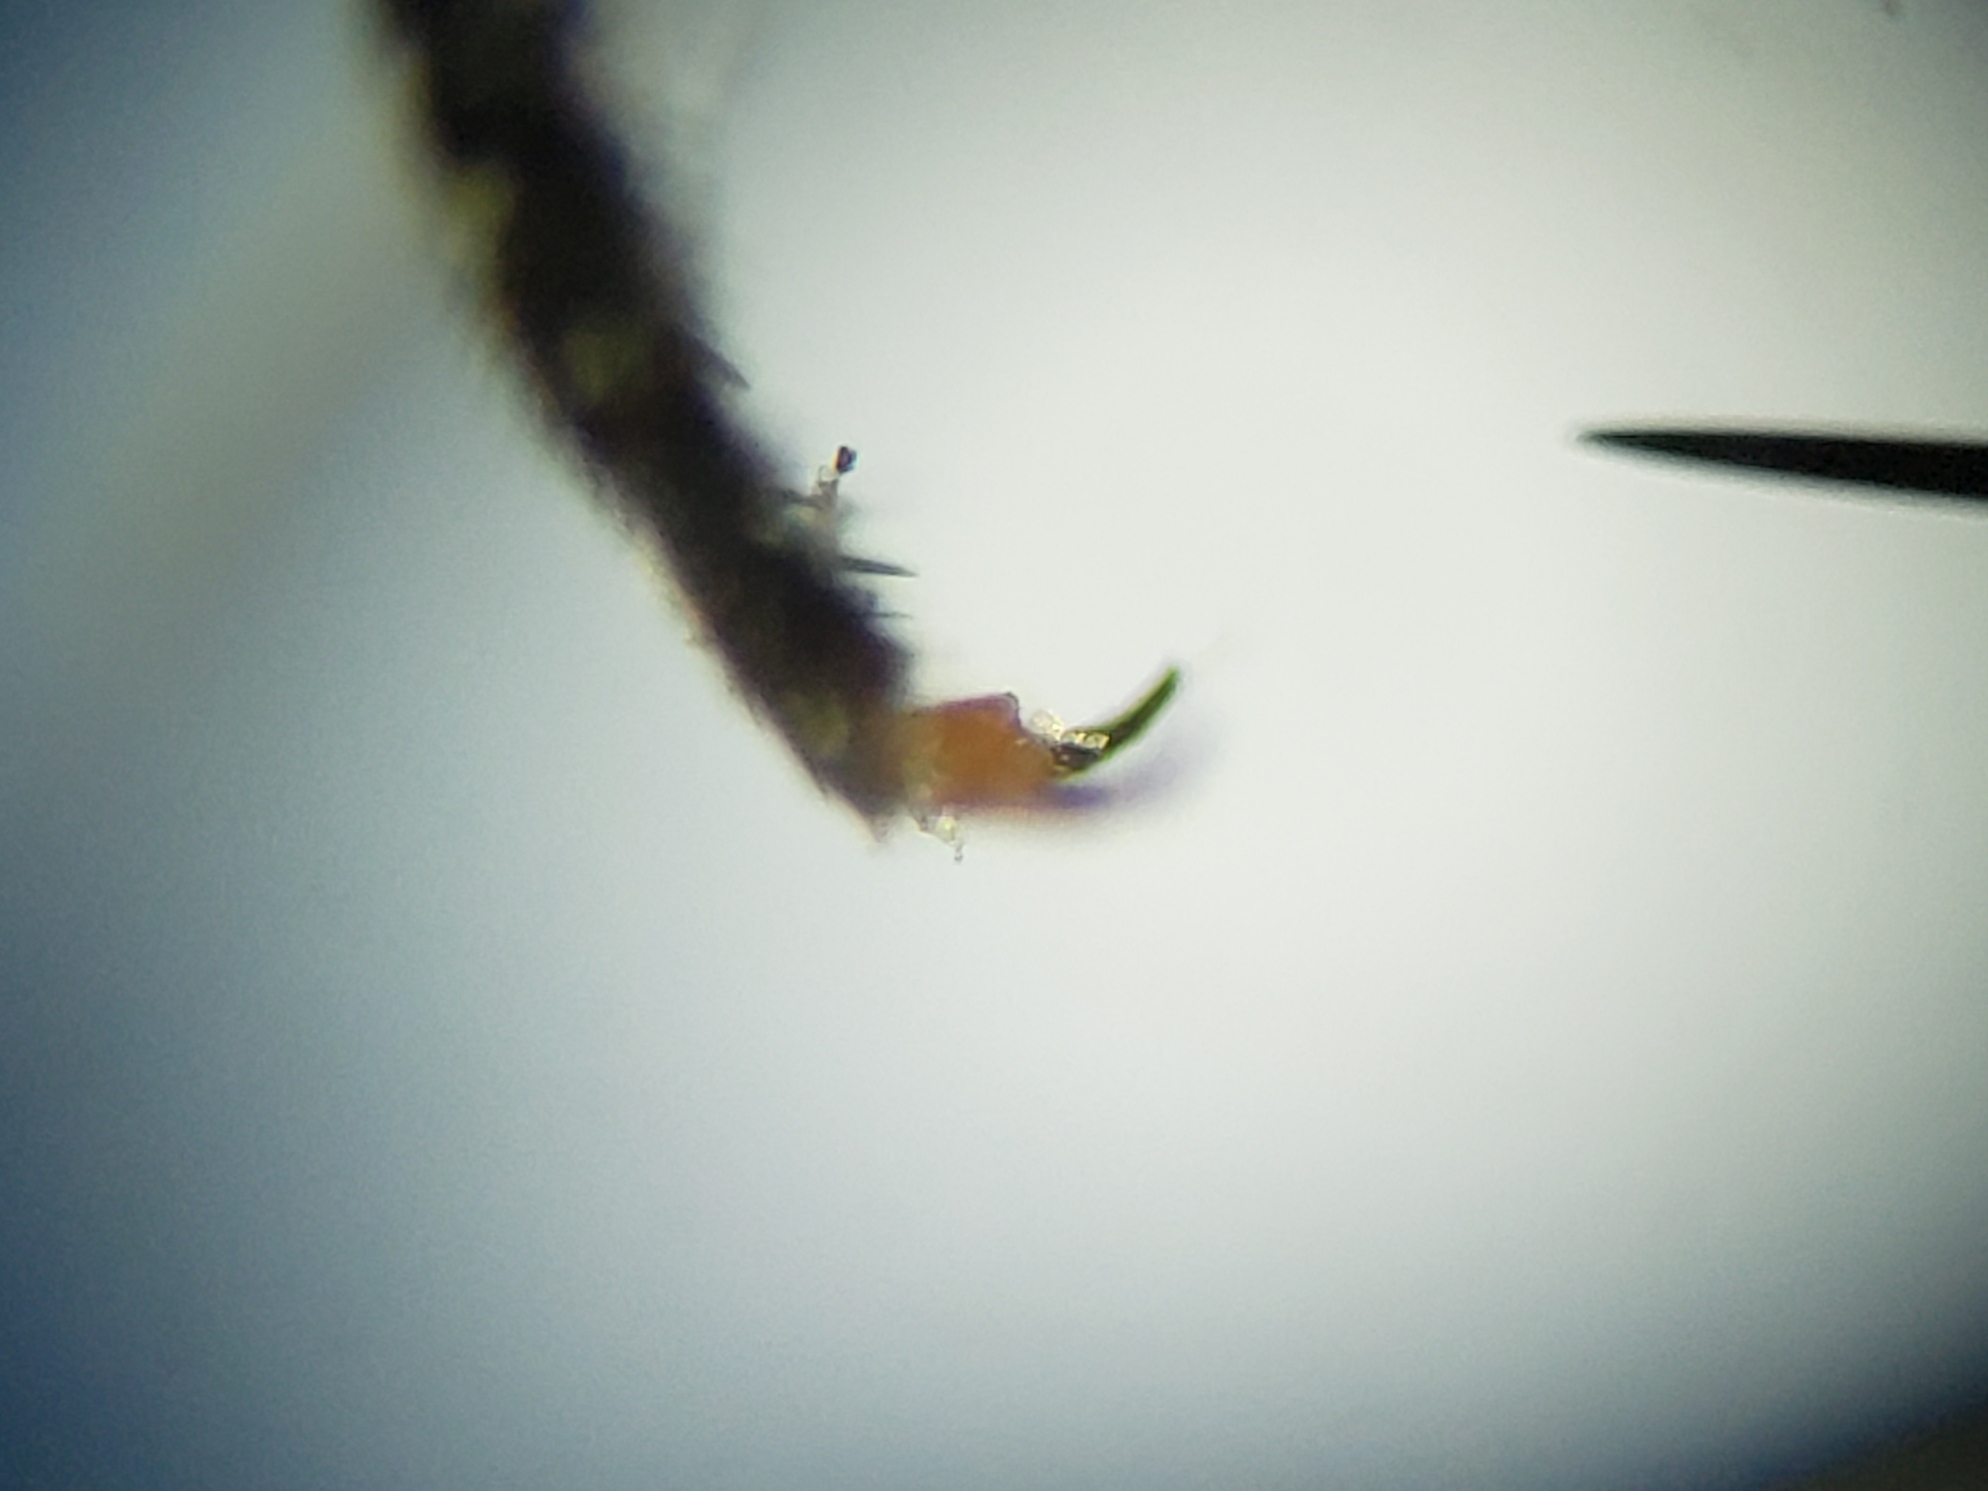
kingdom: Animalia
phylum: Arthropoda
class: Insecta
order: Diptera
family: Bombyliidae
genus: Chrysanthrax
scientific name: Chrysanthrax dispar
